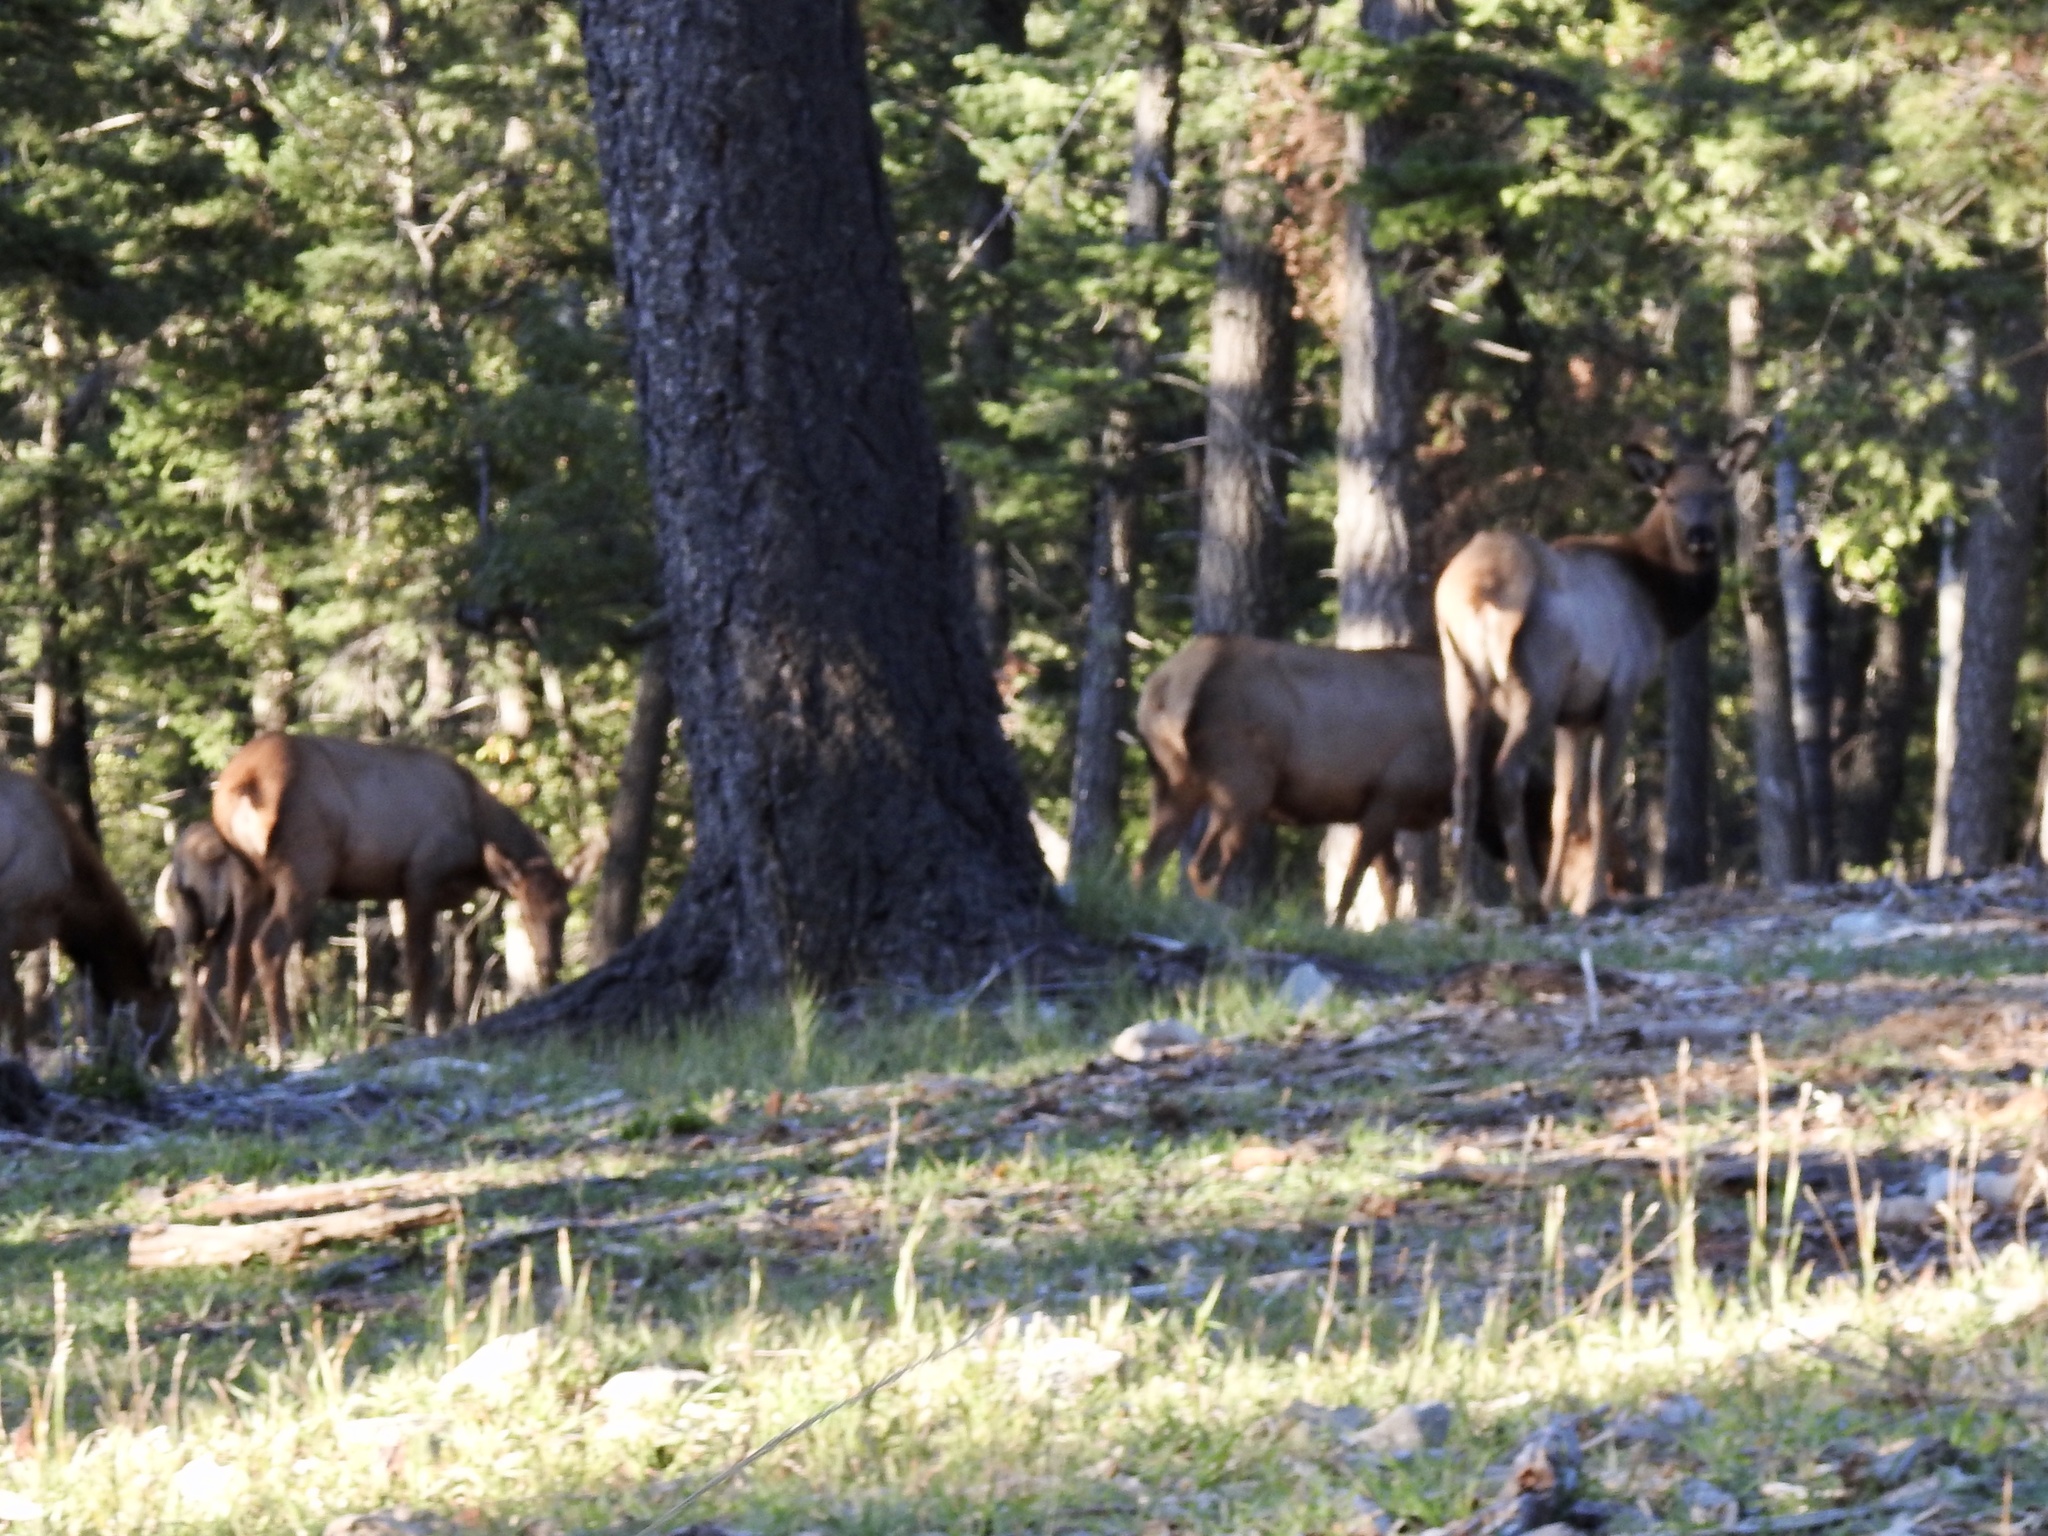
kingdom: Animalia
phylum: Chordata
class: Mammalia
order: Artiodactyla
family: Cervidae
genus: Cervus
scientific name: Cervus elaphus
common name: Red deer
